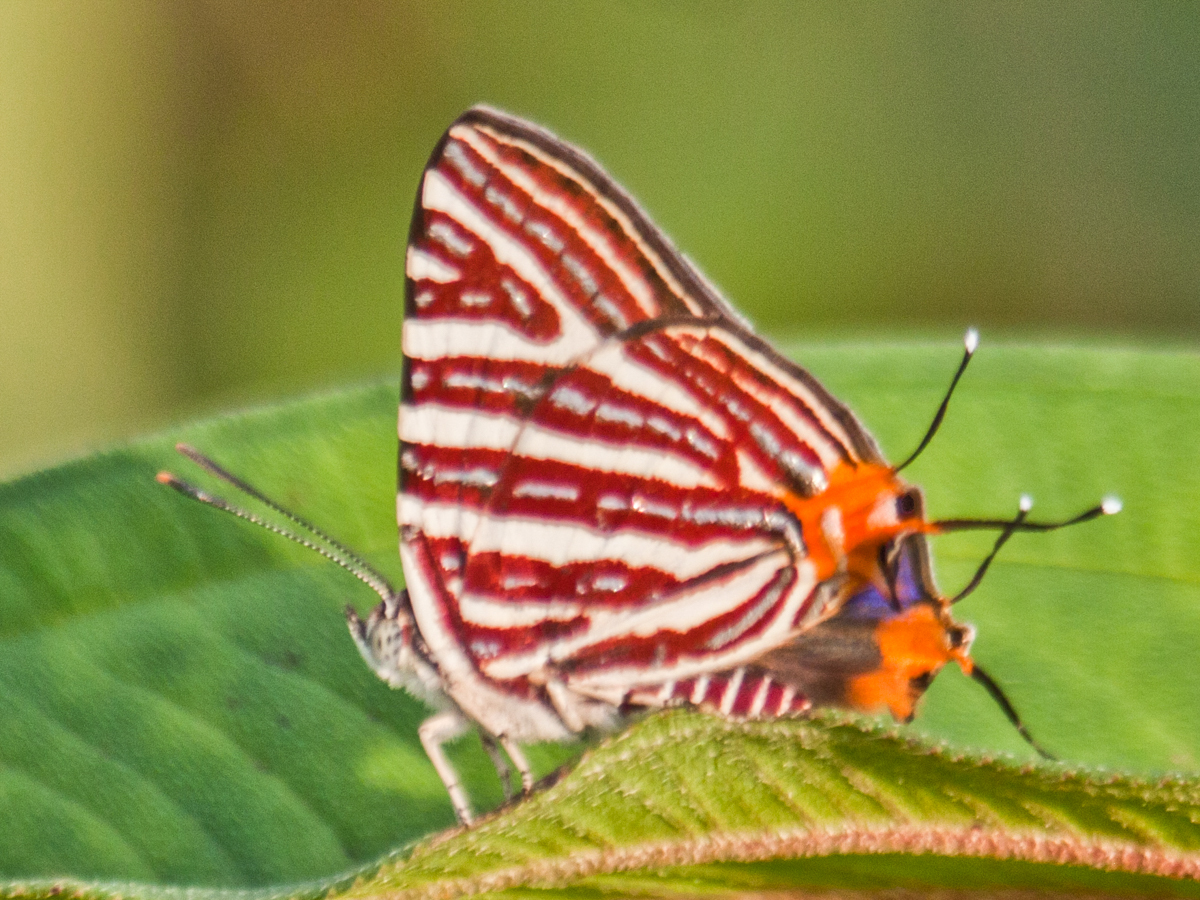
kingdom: Animalia
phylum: Arthropoda
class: Insecta
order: Lepidoptera
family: Lycaenidae
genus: Cigaritis
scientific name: Cigaritis lohita
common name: Long-banded silverline
